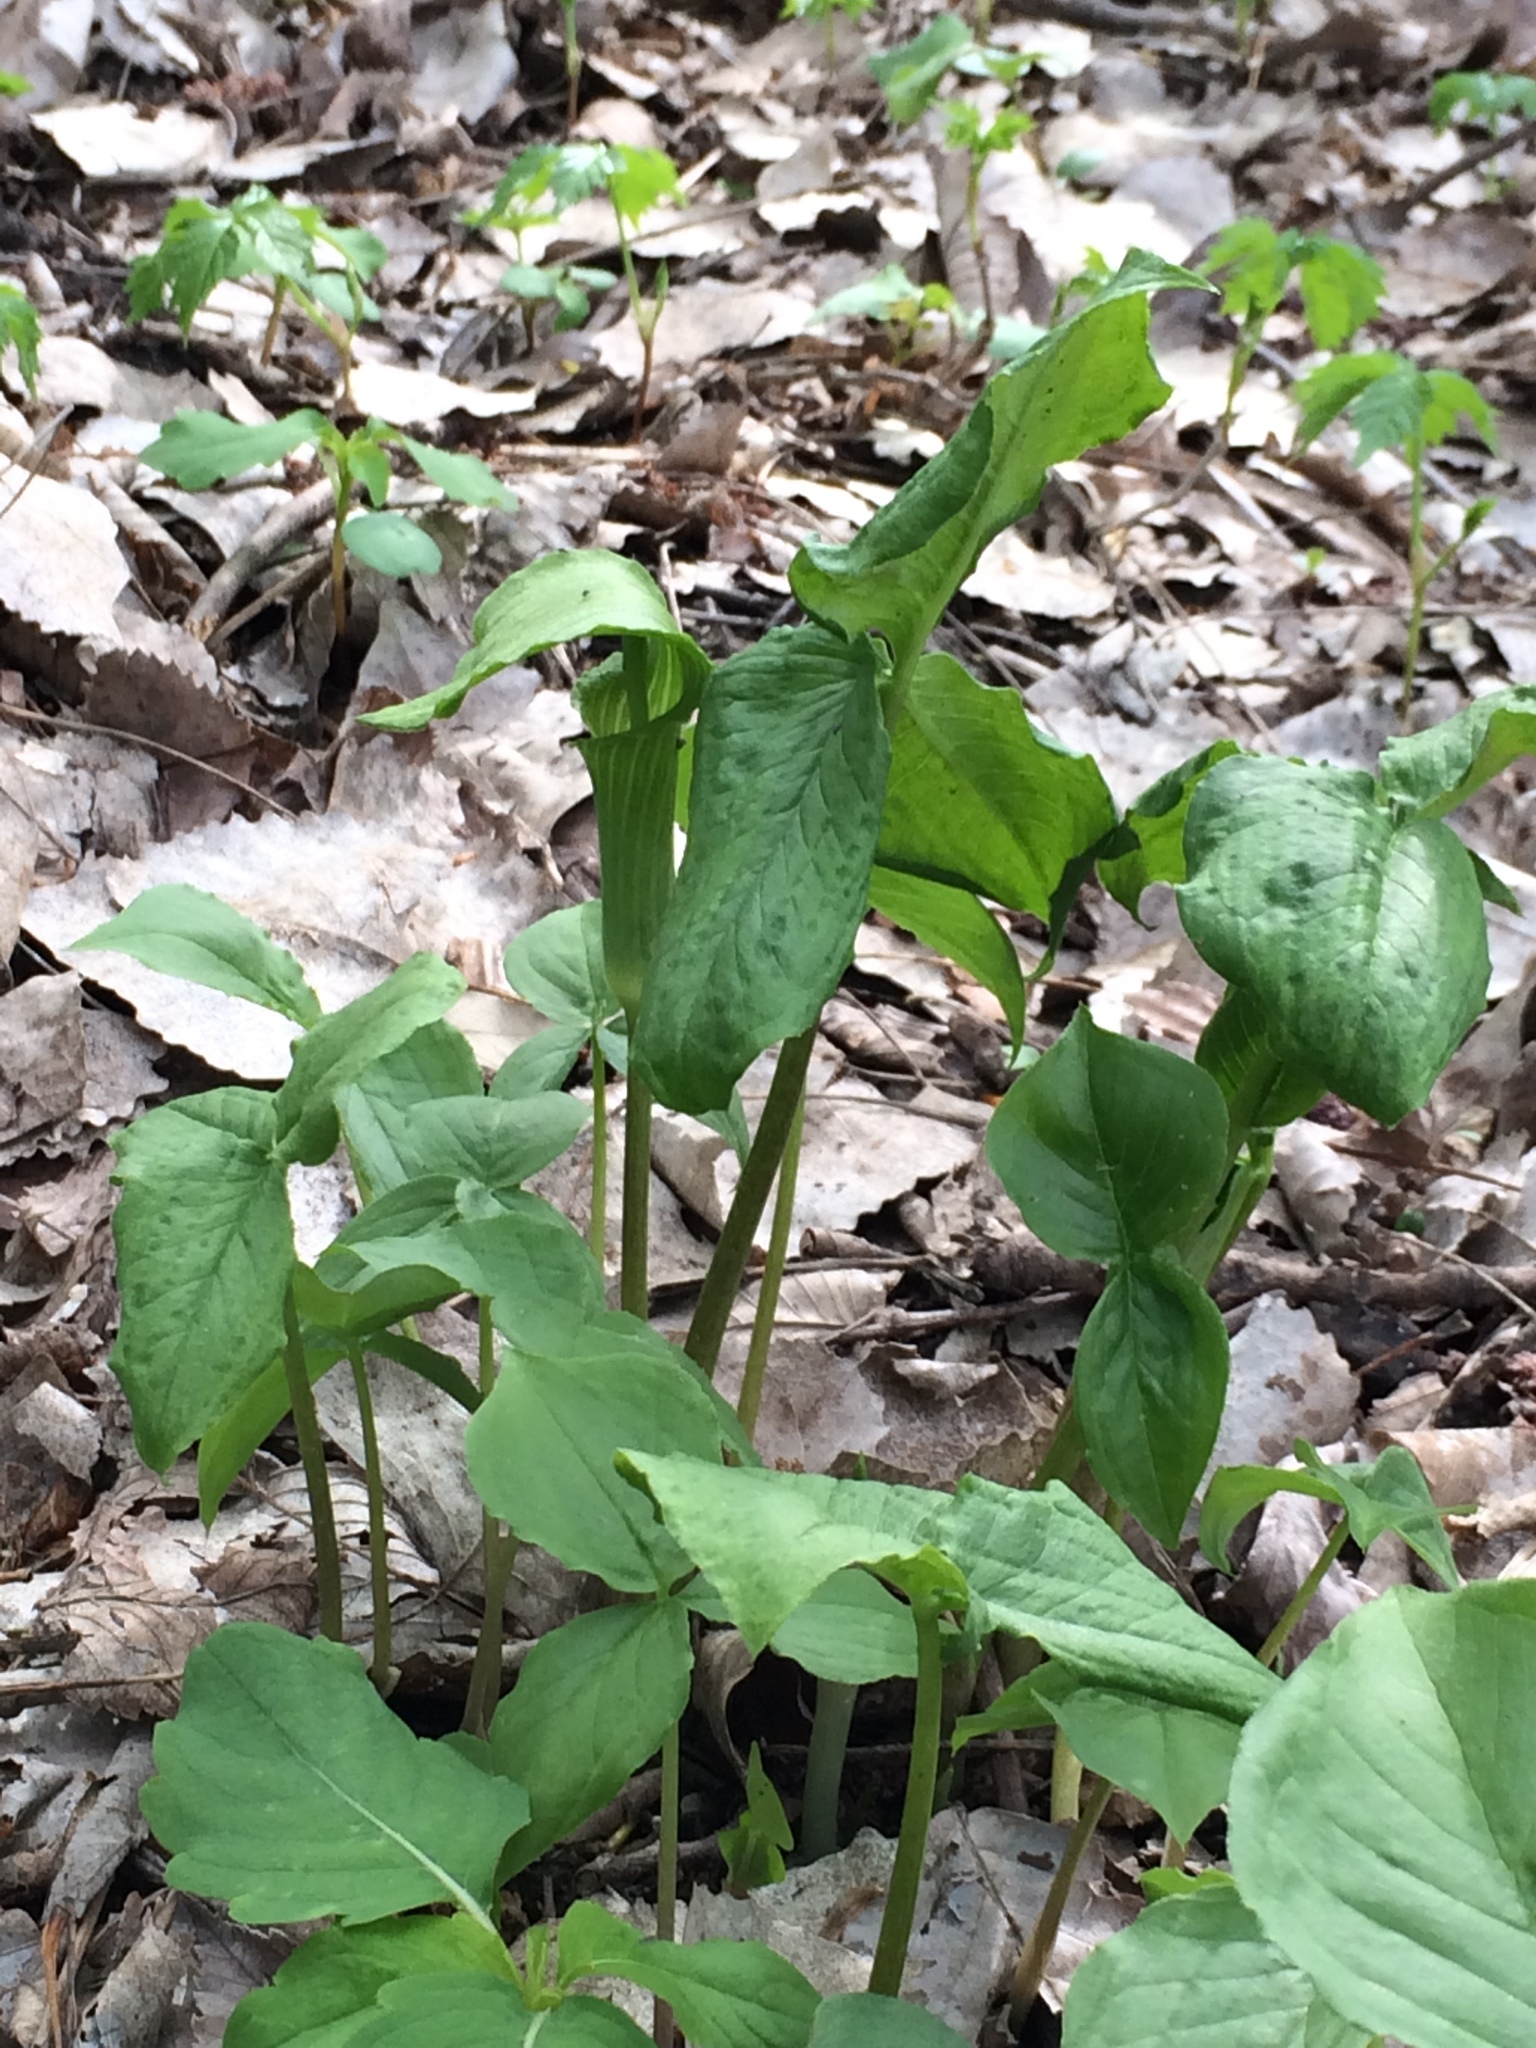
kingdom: Plantae
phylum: Tracheophyta
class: Liliopsida
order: Alismatales
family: Araceae
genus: Arisaema
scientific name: Arisaema triphyllum
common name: Jack-in-the-pulpit
